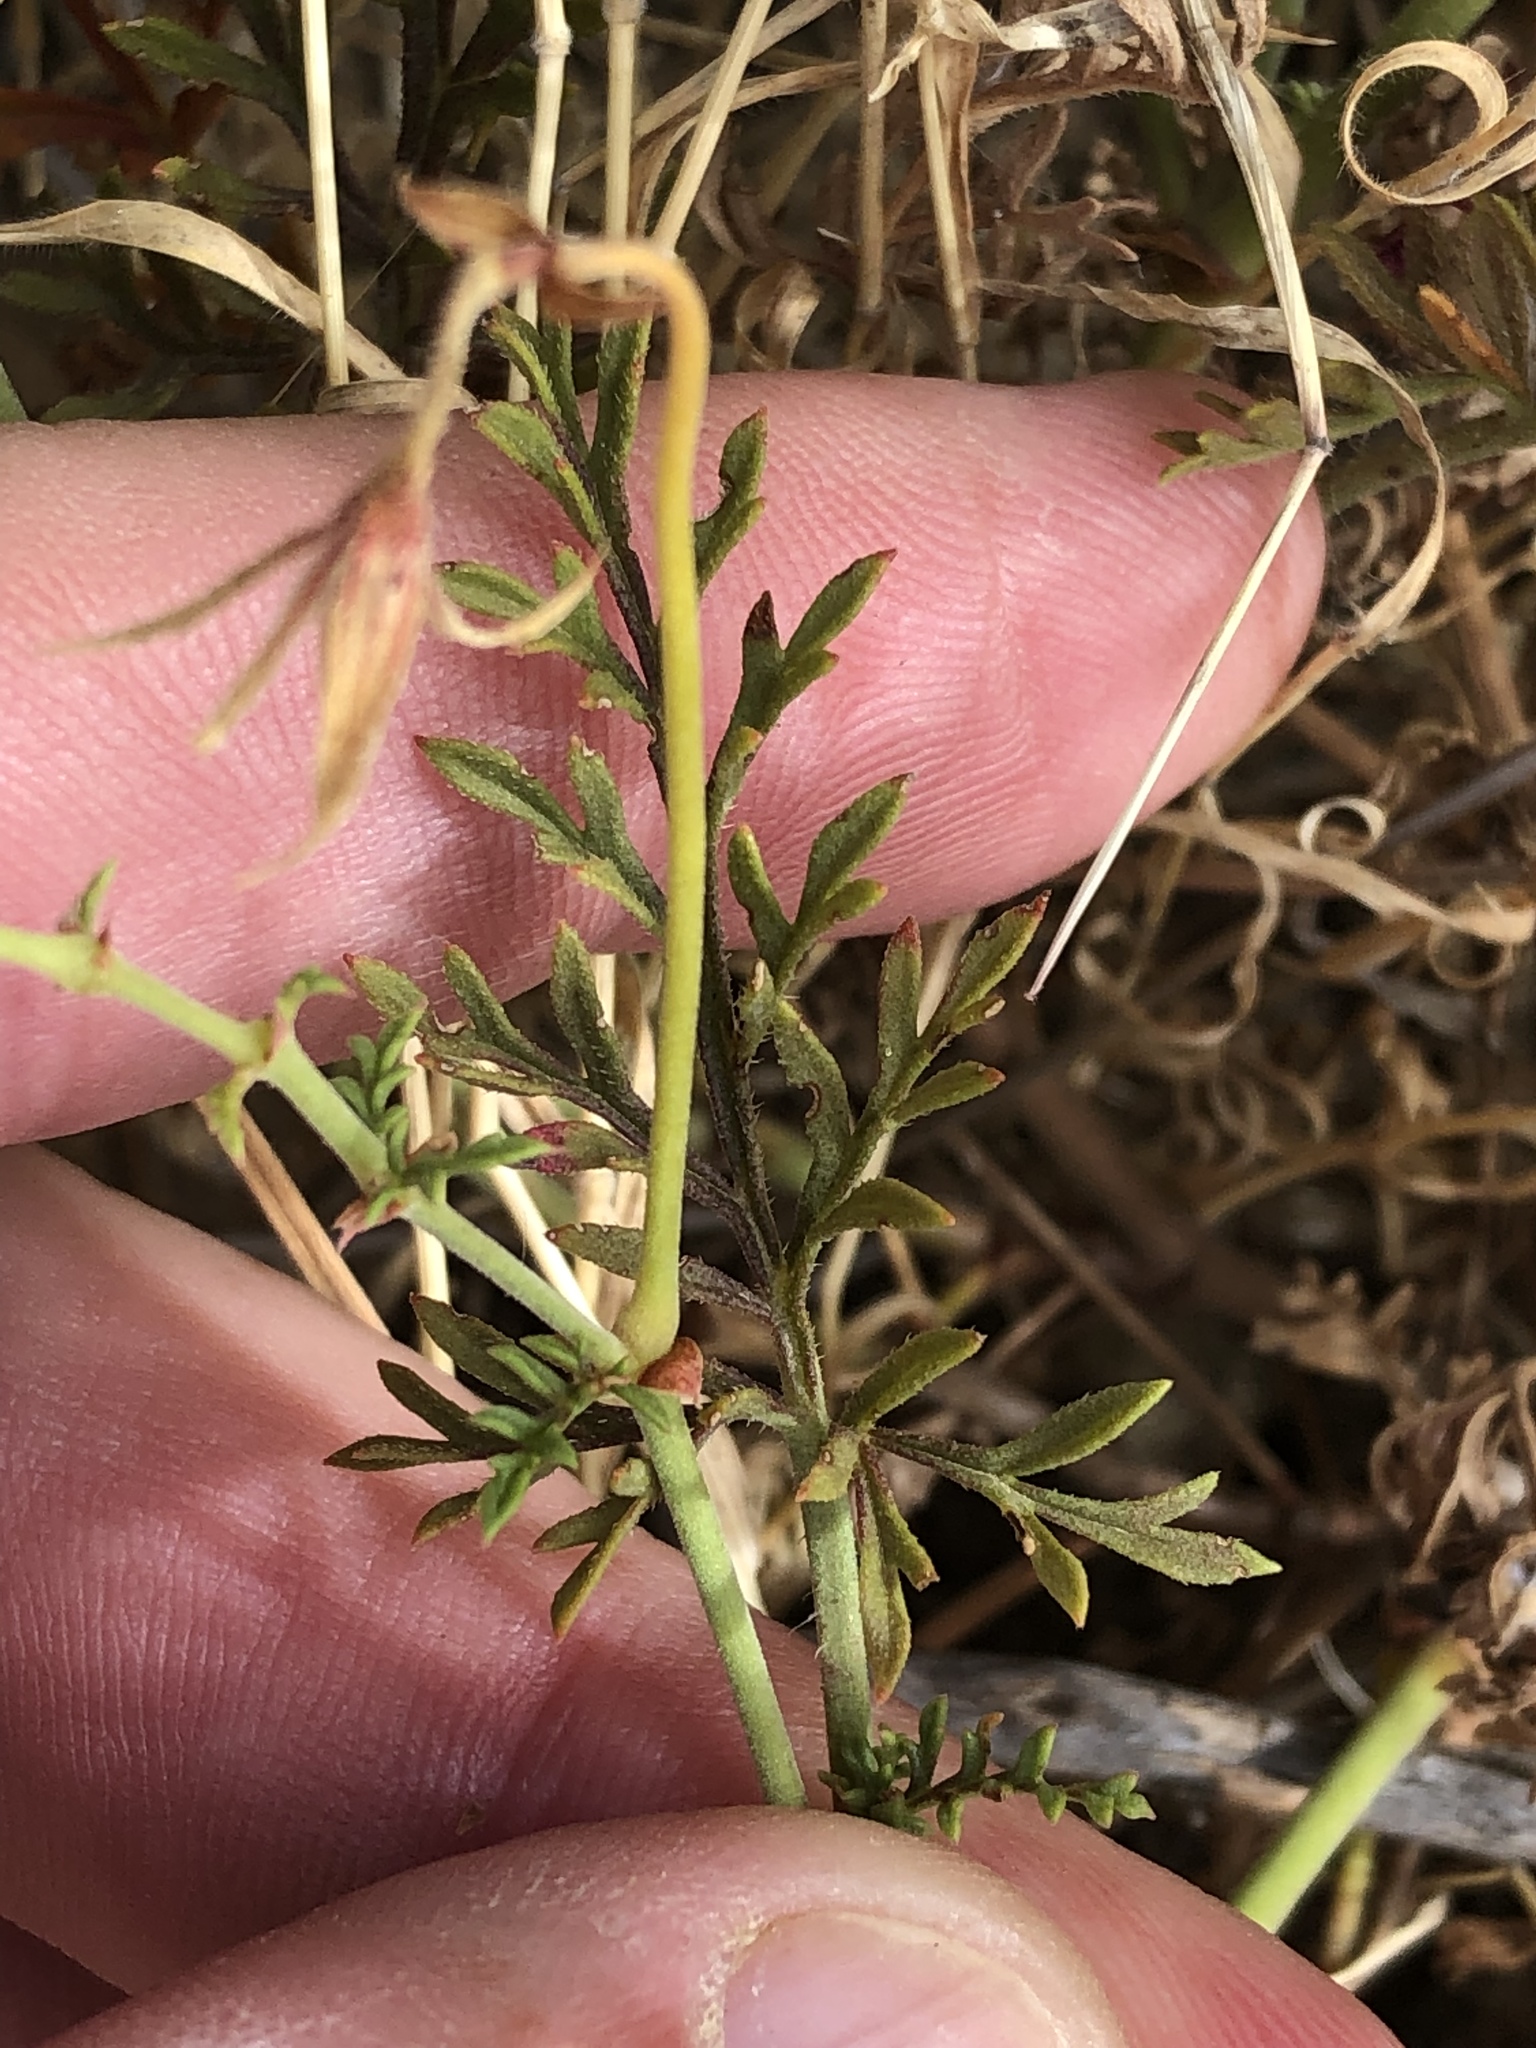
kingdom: Plantae
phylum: Tracheophyta
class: Magnoliopsida
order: Geraniales
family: Geraniaceae
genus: Pelargonium
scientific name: Pelargonium caucalifolium
